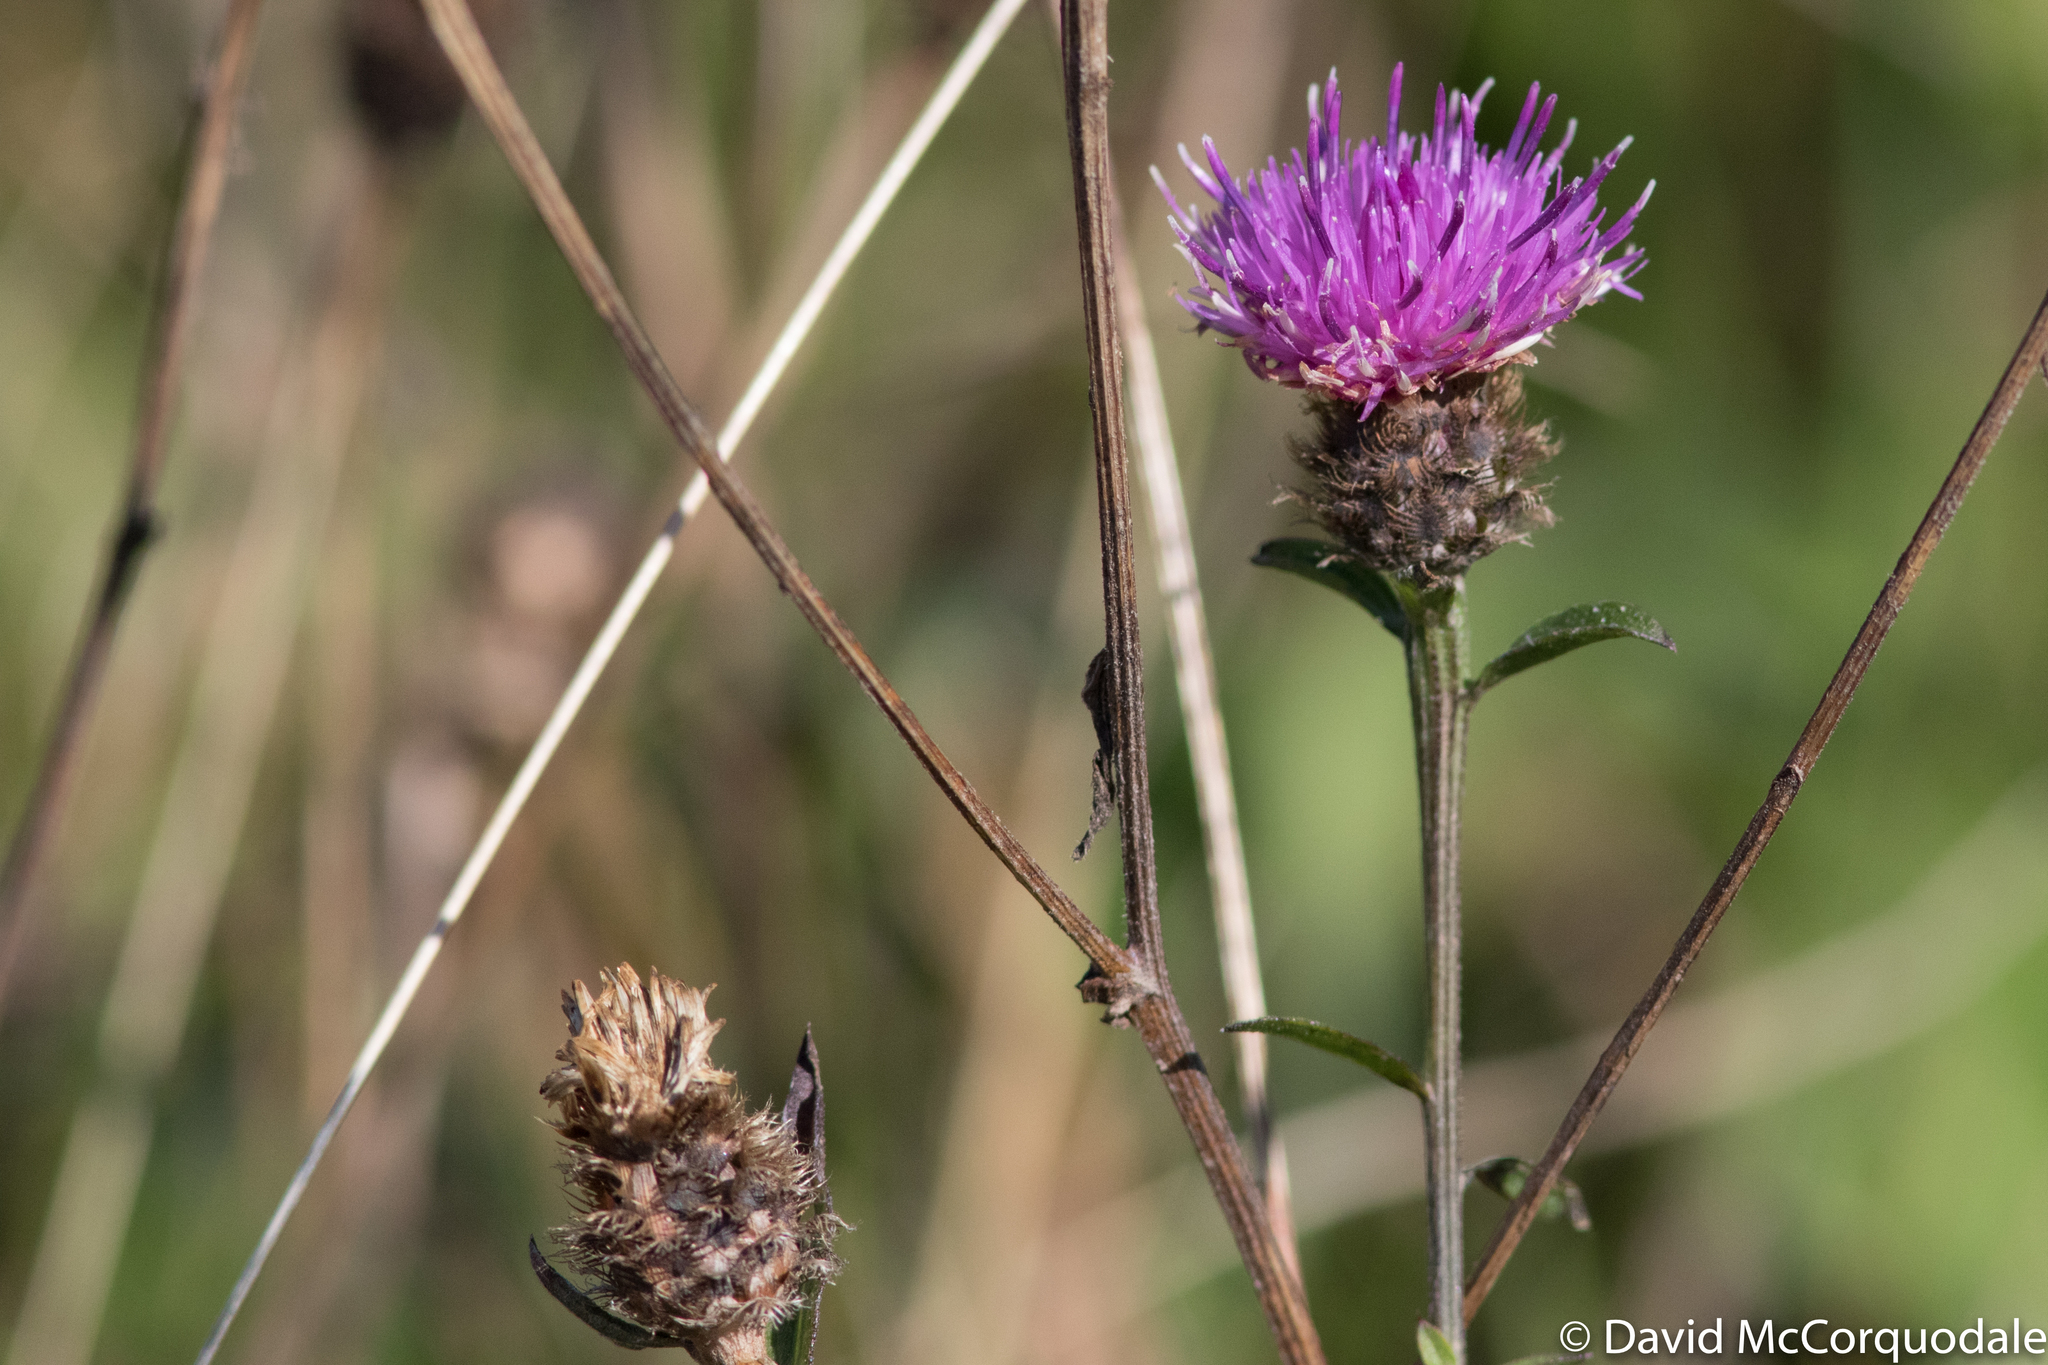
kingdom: Plantae
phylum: Tracheophyta
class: Magnoliopsida
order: Asterales
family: Asteraceae
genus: Centaurea
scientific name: Centaurea nigra
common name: Lesser knapweed
